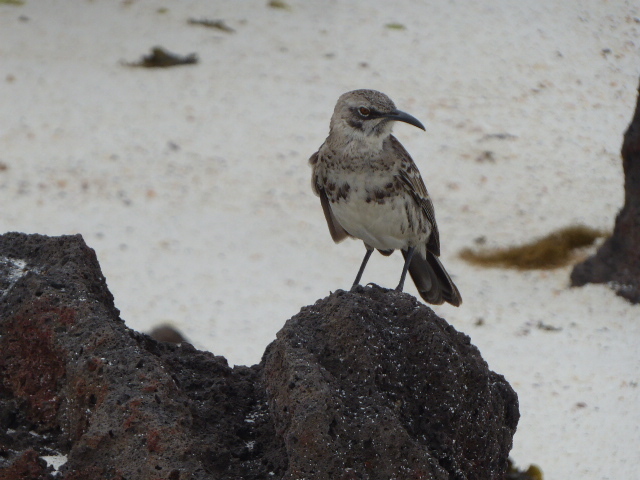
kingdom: Animalia
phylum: Chordata
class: Aves
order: Passeriformes
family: Mimidae
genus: Mimus
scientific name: Mimus parvulus
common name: Galapagos mockingbird
